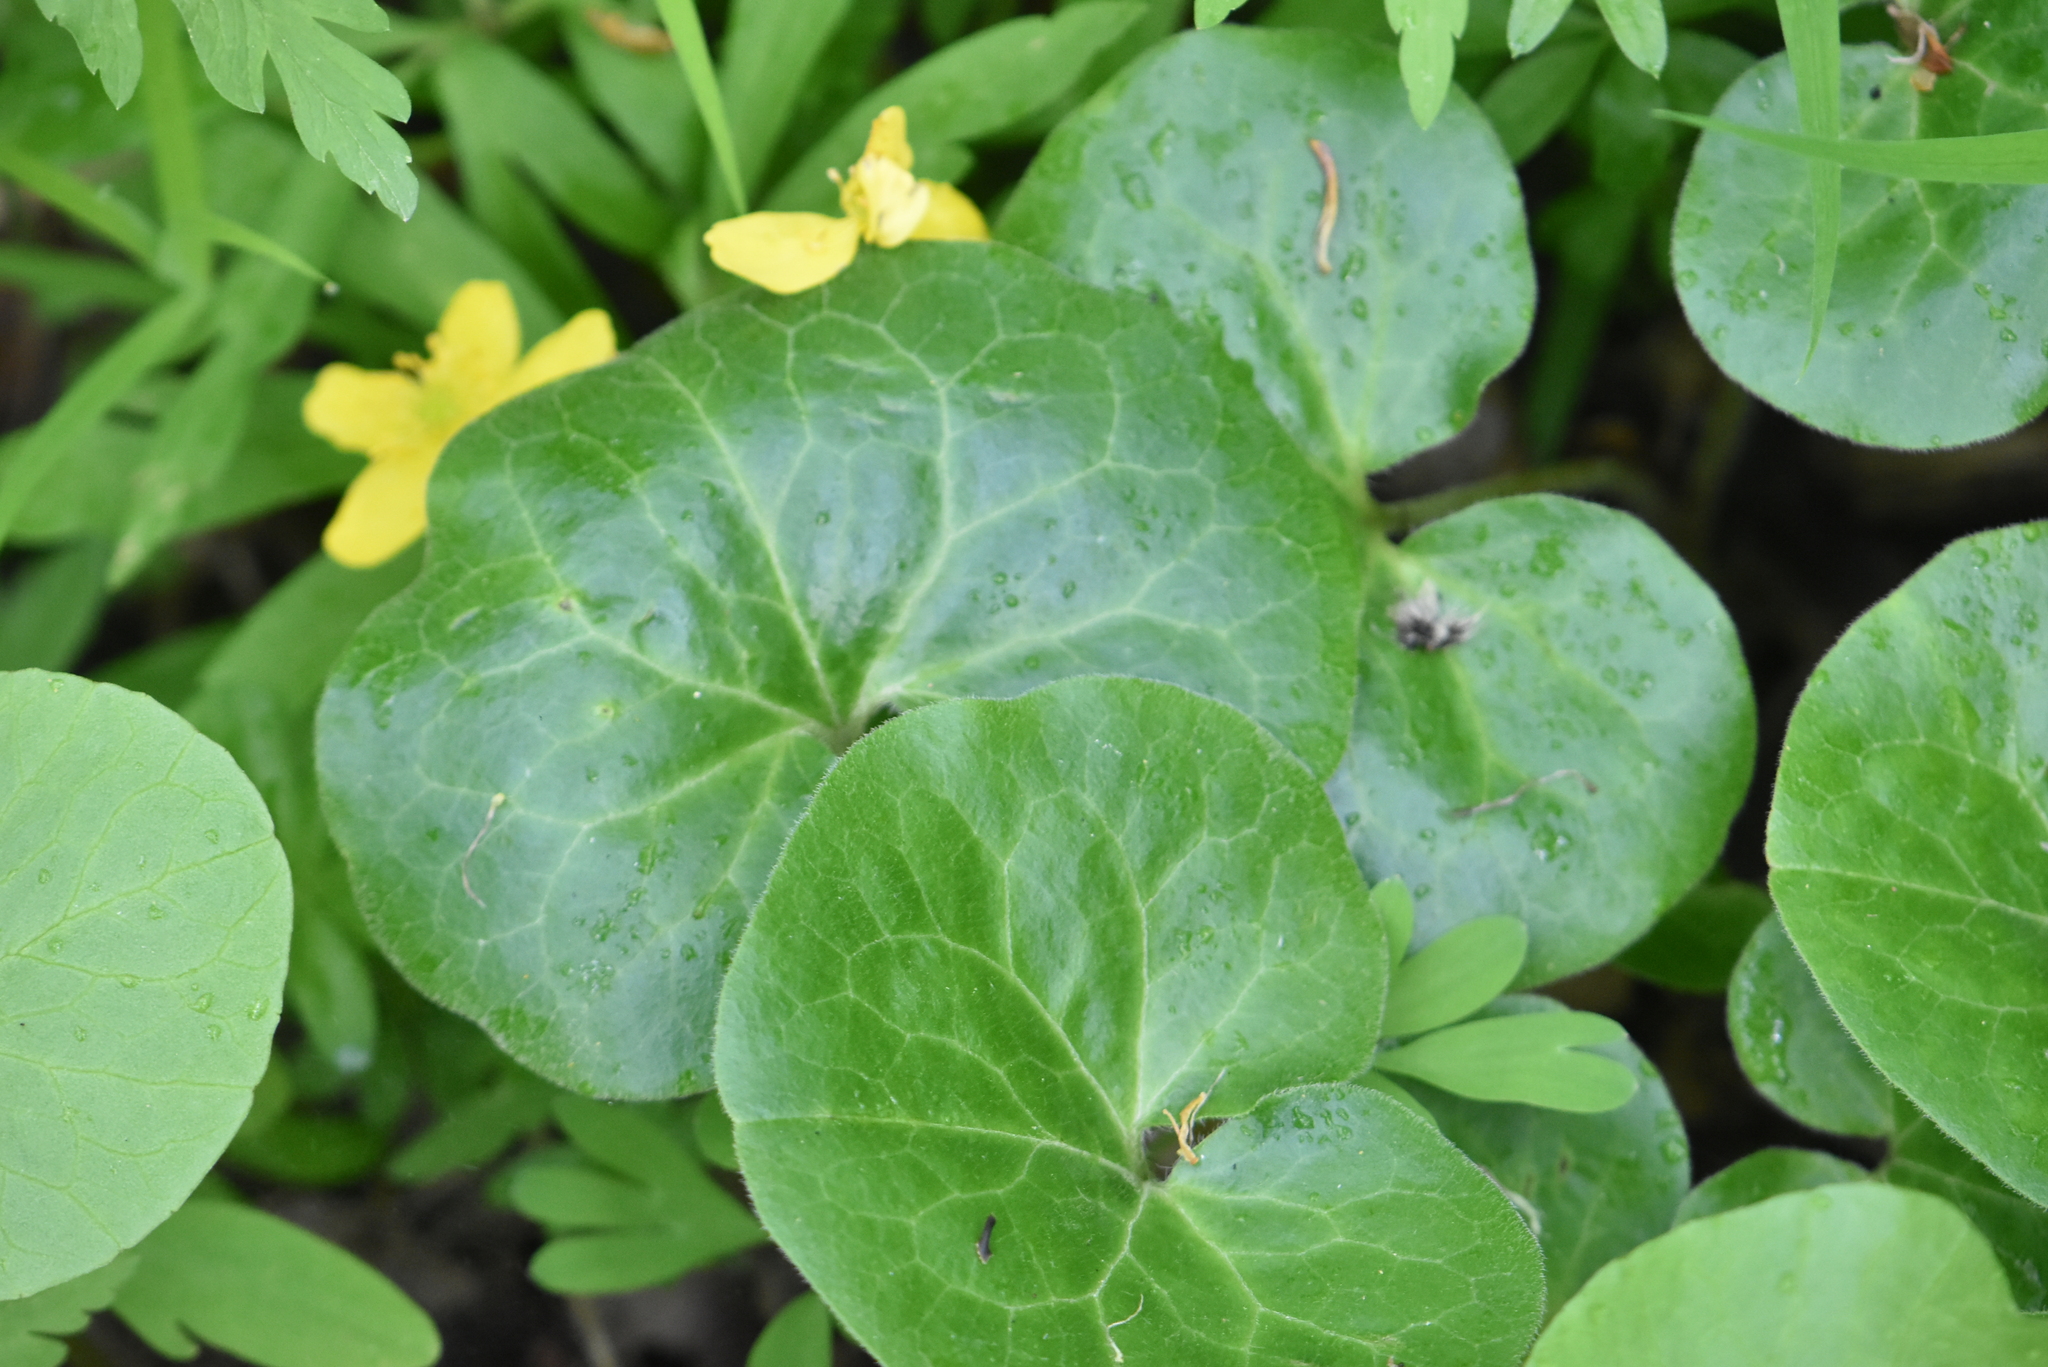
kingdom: Plantae
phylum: Tracheophyta
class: Magnoliopsida
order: Piperales
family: Aristolochiaceae
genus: Asarum
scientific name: Asarum europaeum
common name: Asarabacca
